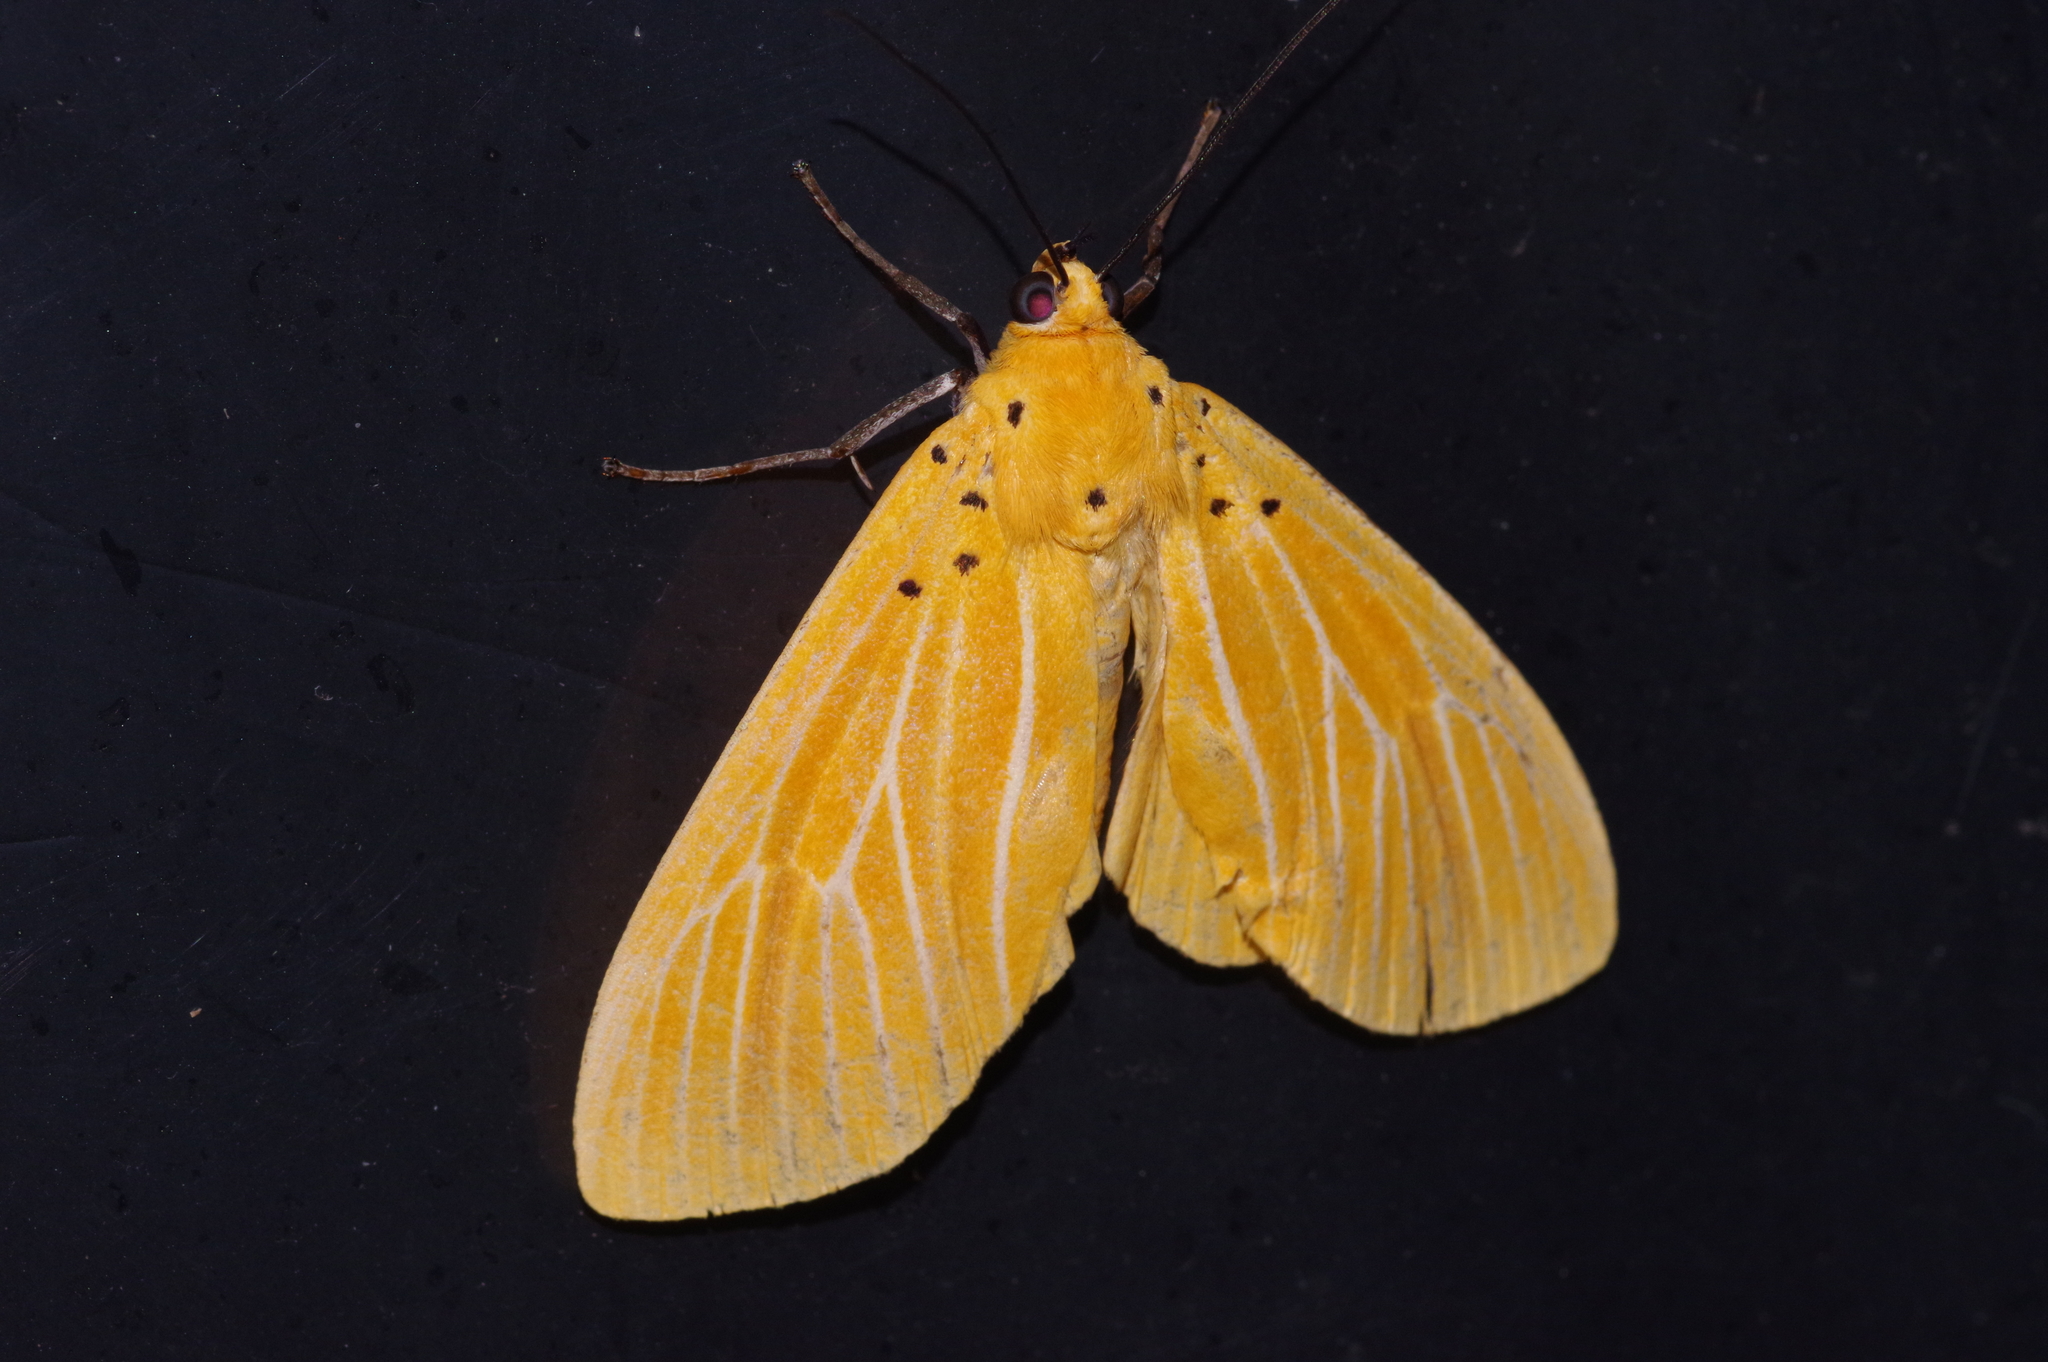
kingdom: Animalia
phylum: Arthropoda
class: Insecta
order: Lepidoptera
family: Erebidae
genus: Asota
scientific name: Asota egens
